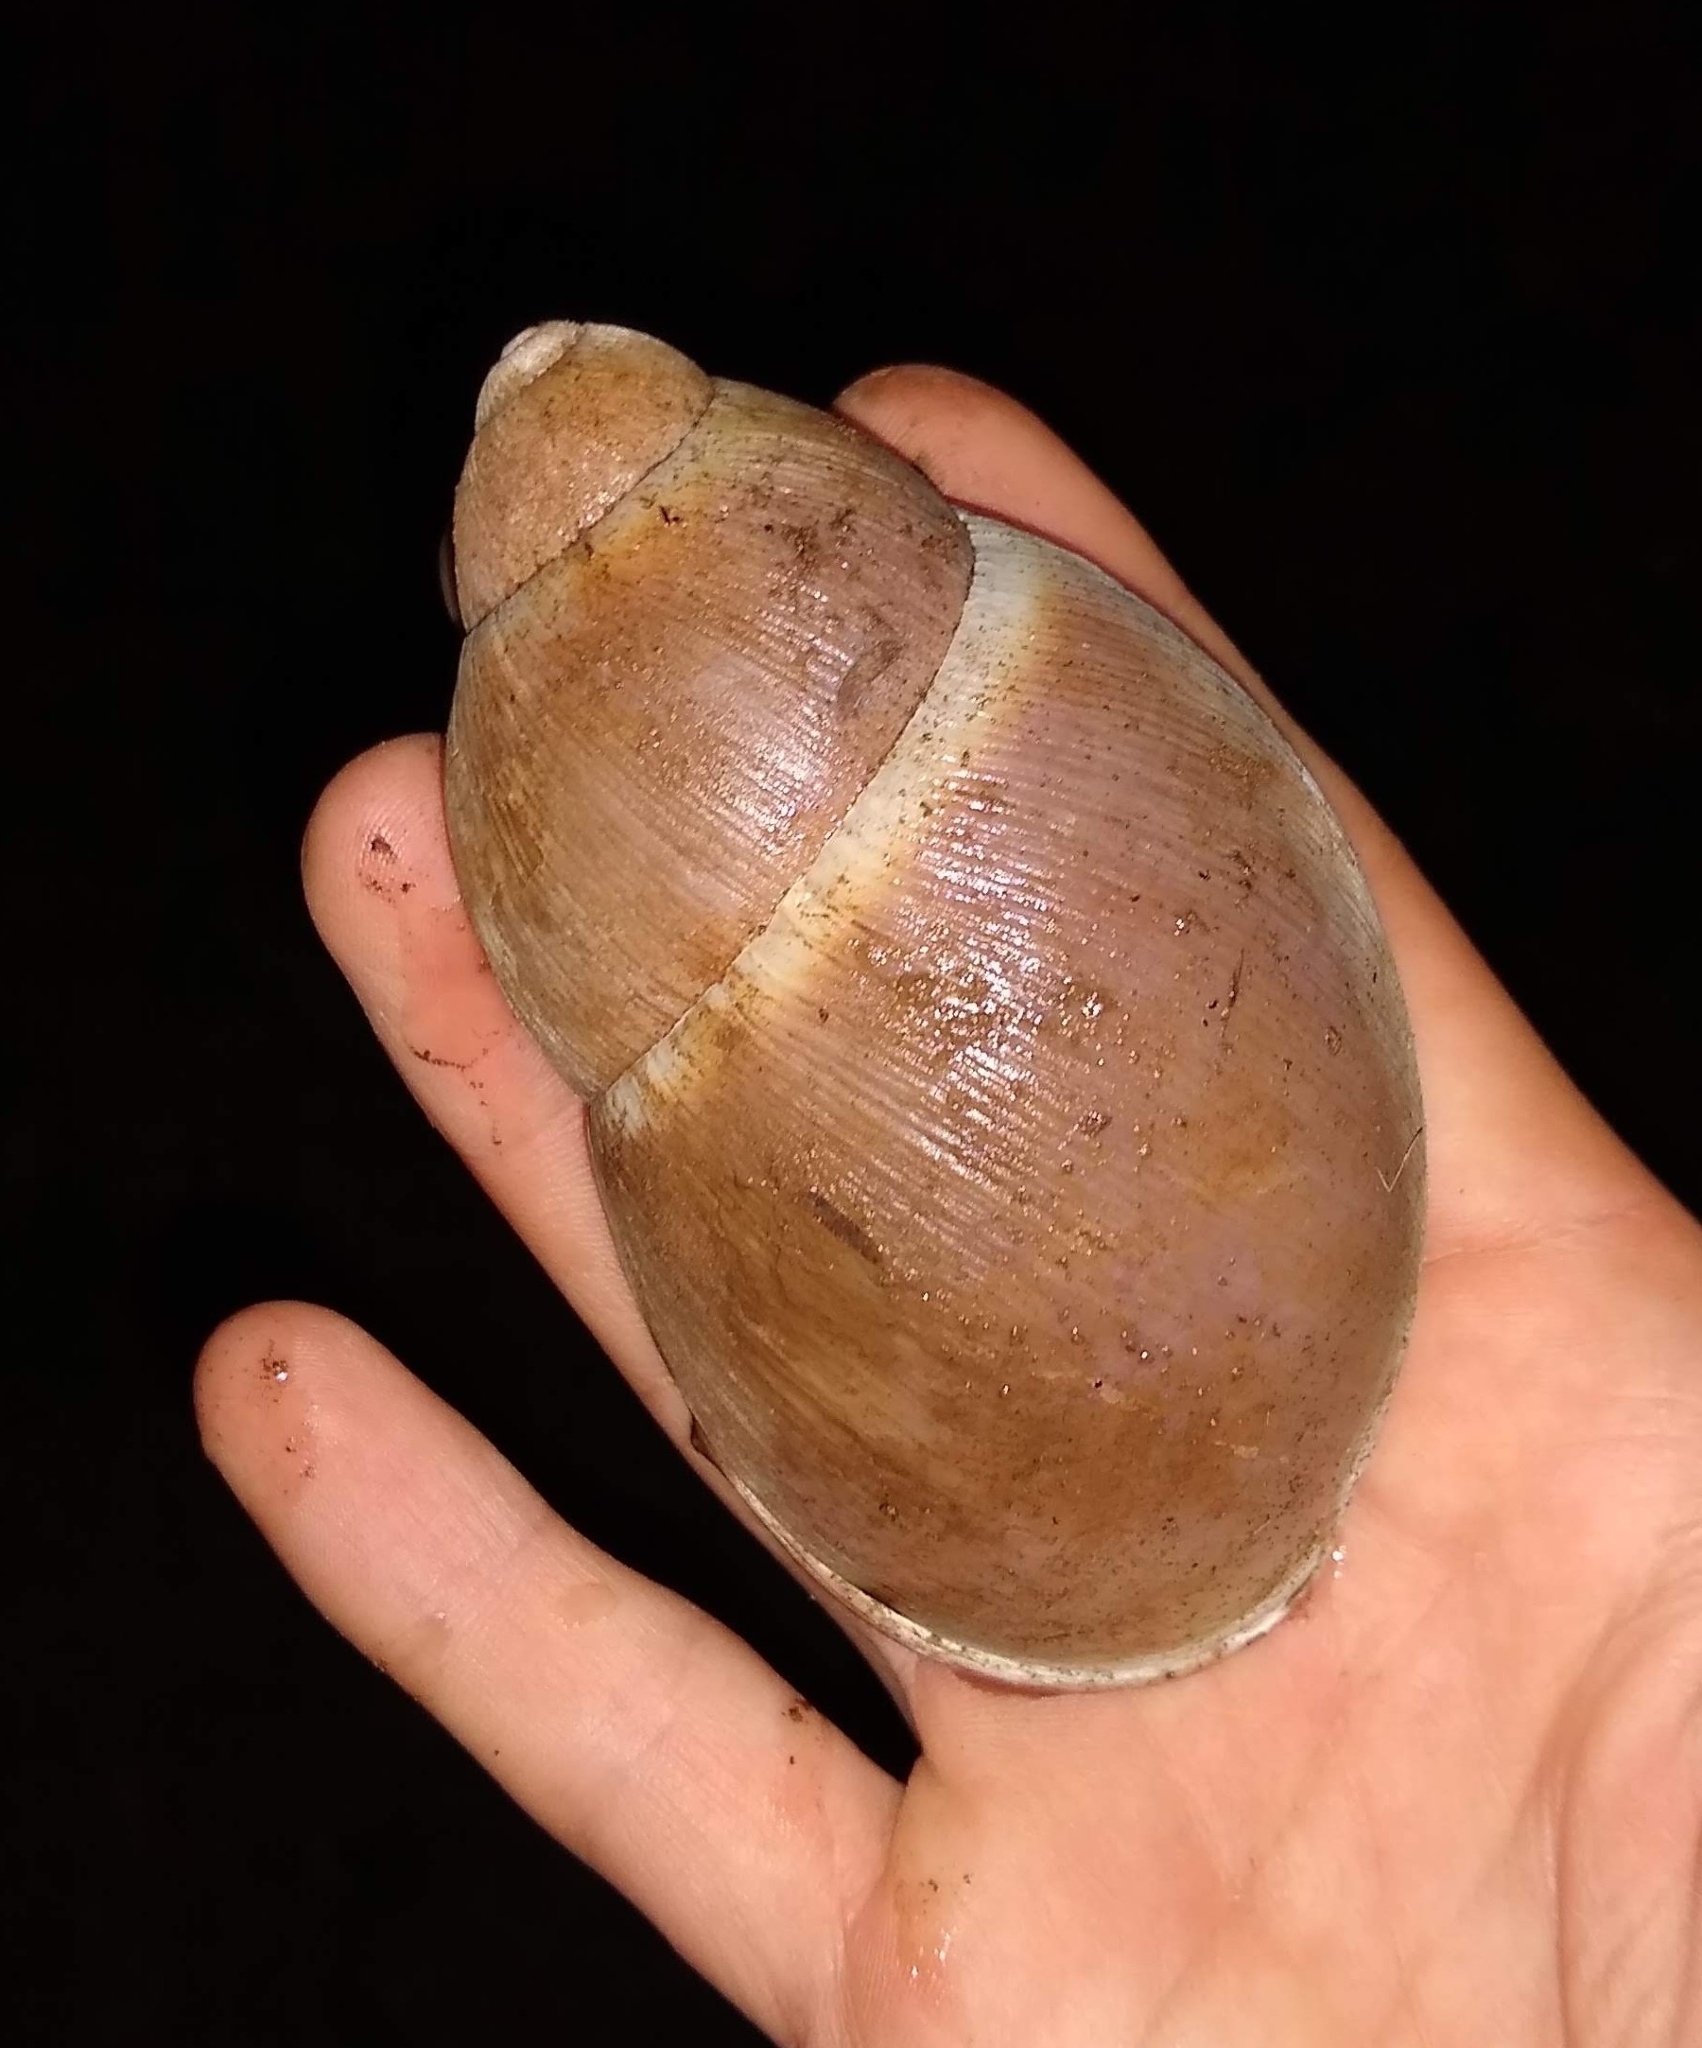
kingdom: Animalia
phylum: Mollusca
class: Gastropoda
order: Stylommatophora
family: Strophocheilidae
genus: Megalobulimus
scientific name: Megalobulimus sanctaepauli
